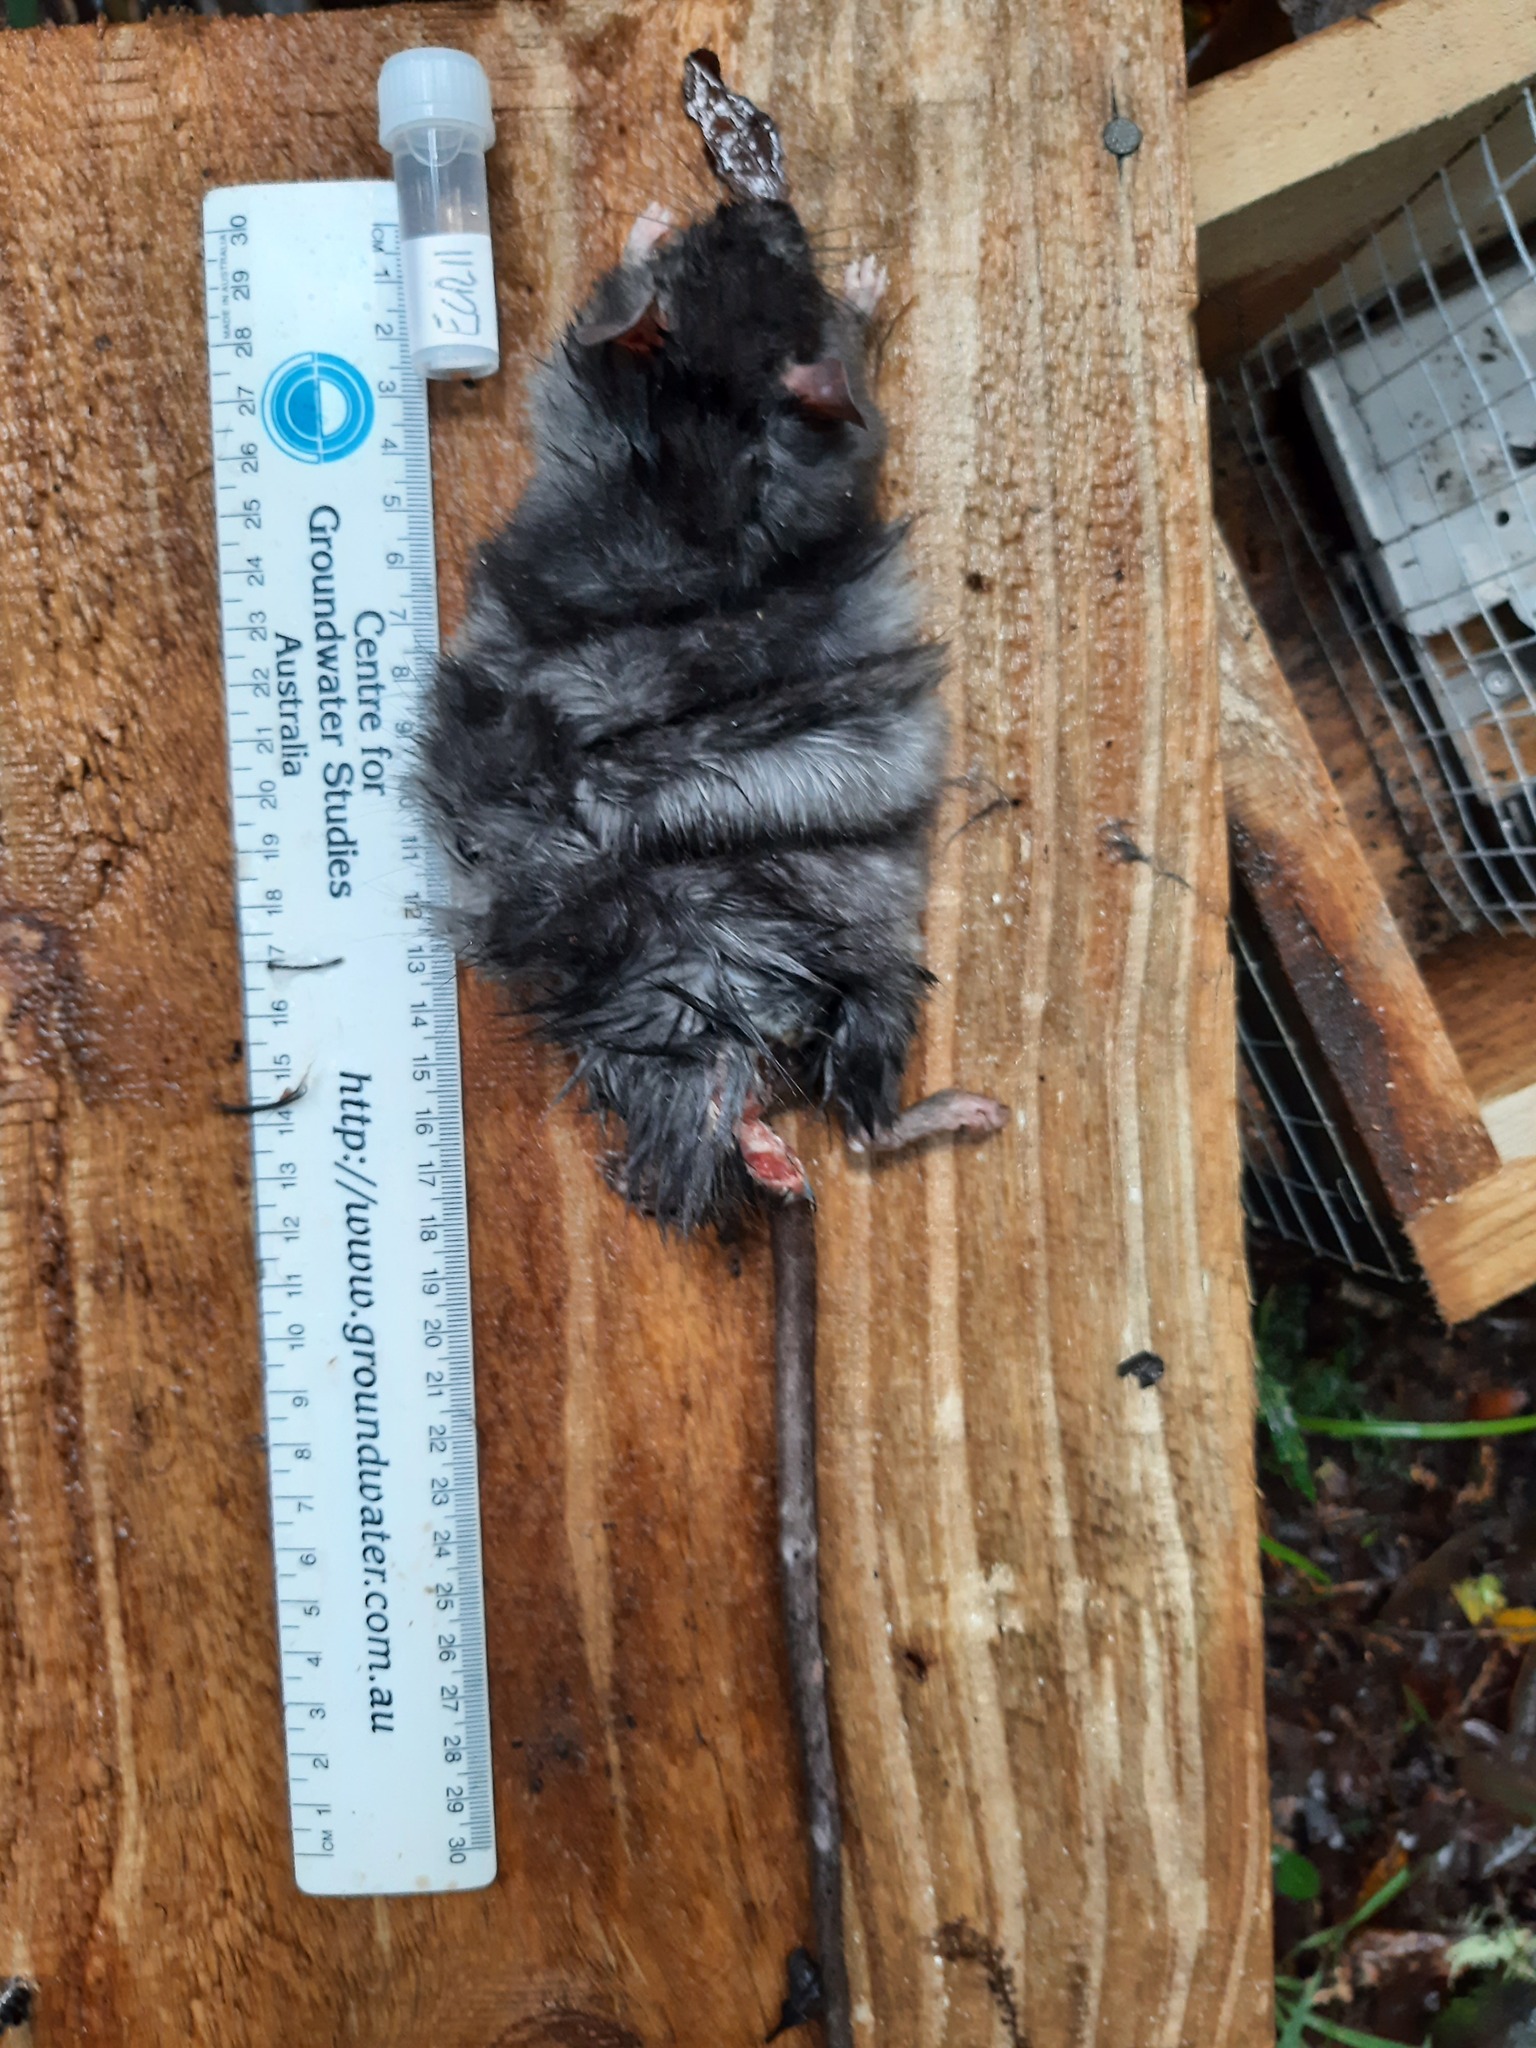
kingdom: Animalia
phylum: Chordata
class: Mammalia
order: Rodentia
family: Muridae
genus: Rattus
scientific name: Rattus rattus
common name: Black rat
